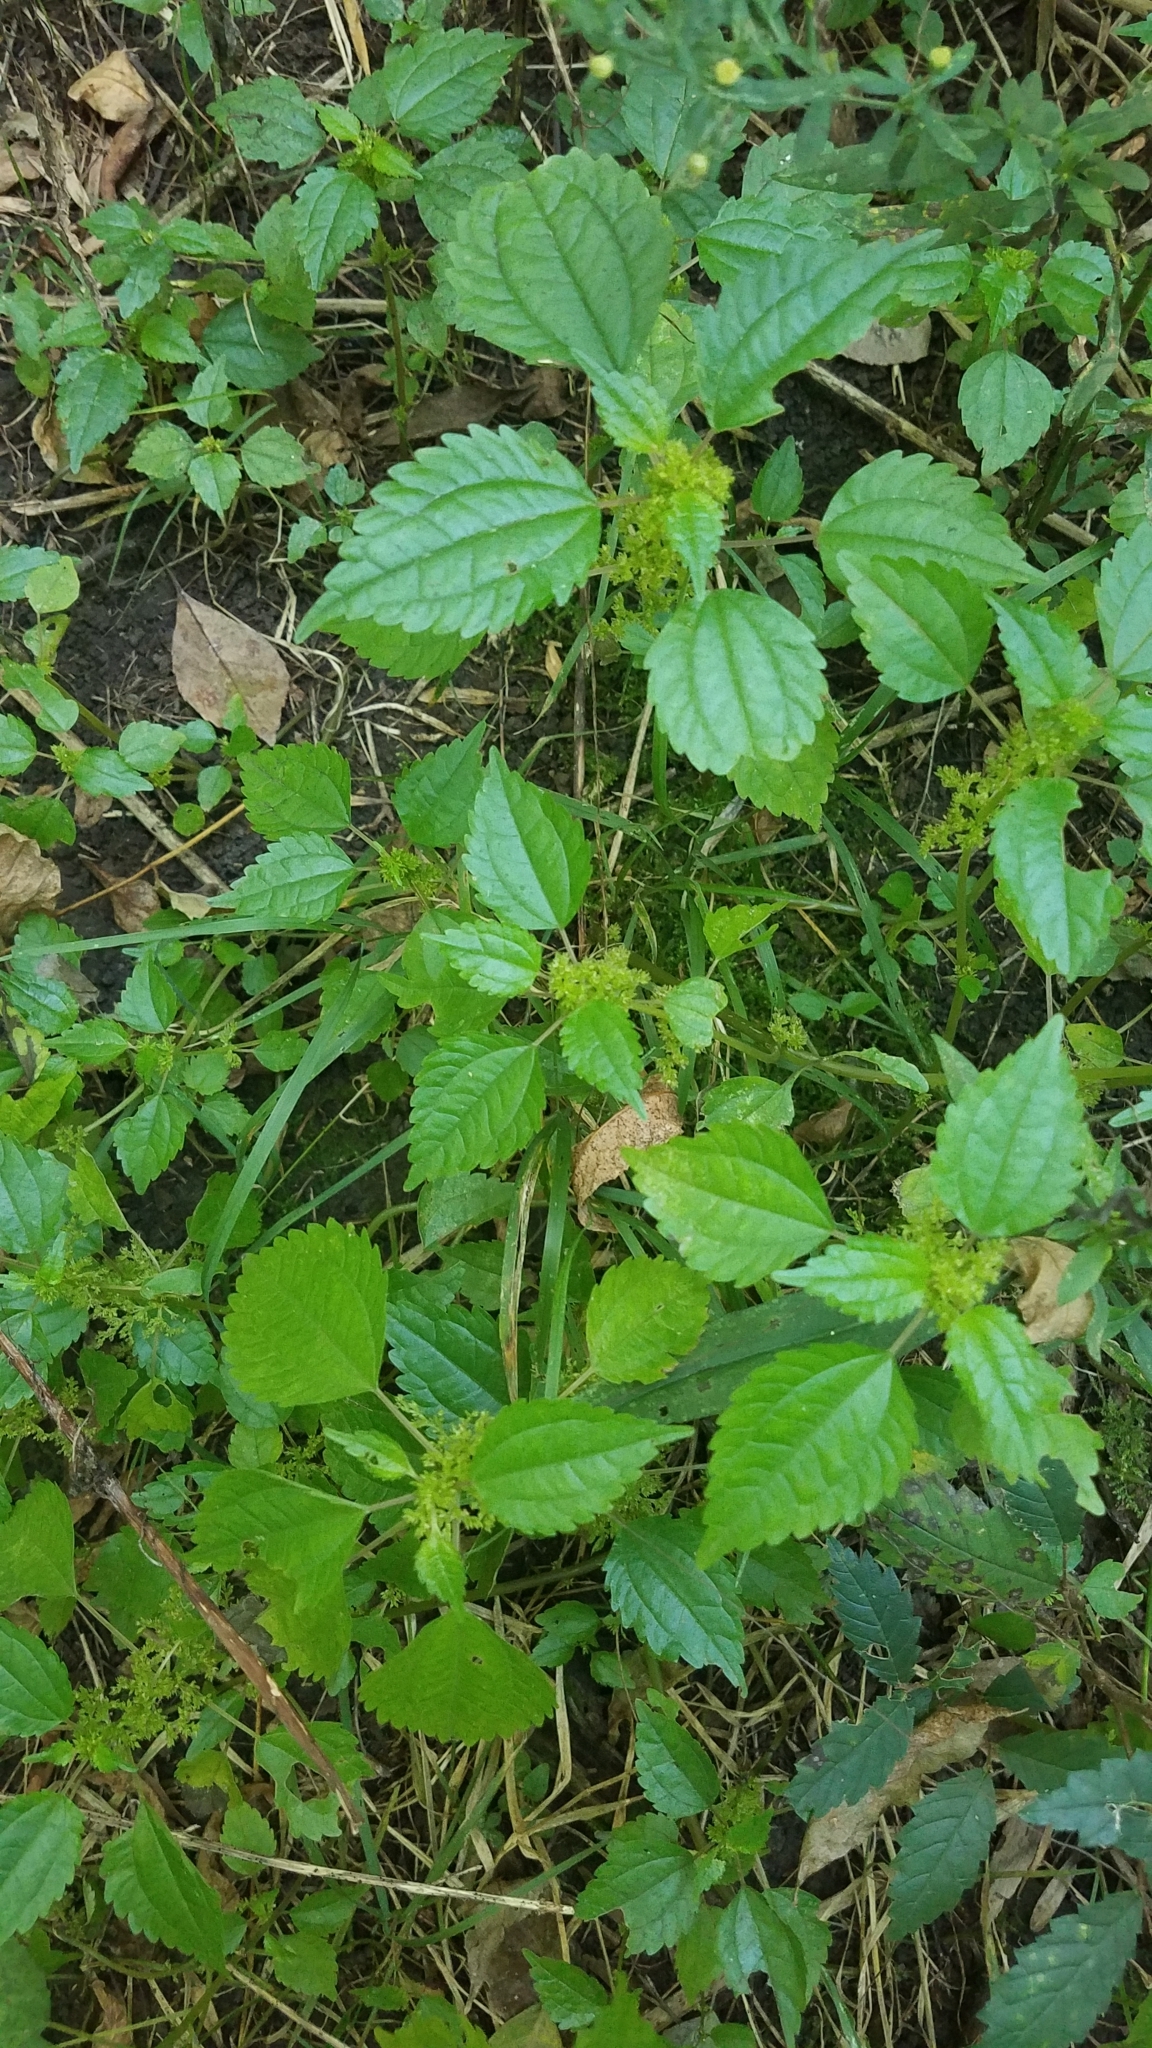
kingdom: Plantae
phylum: Tracheophyta
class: Magnoliopsida
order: Rosales
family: Urticaceae
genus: Pilea
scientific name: Pilea pumila
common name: Clearweed
